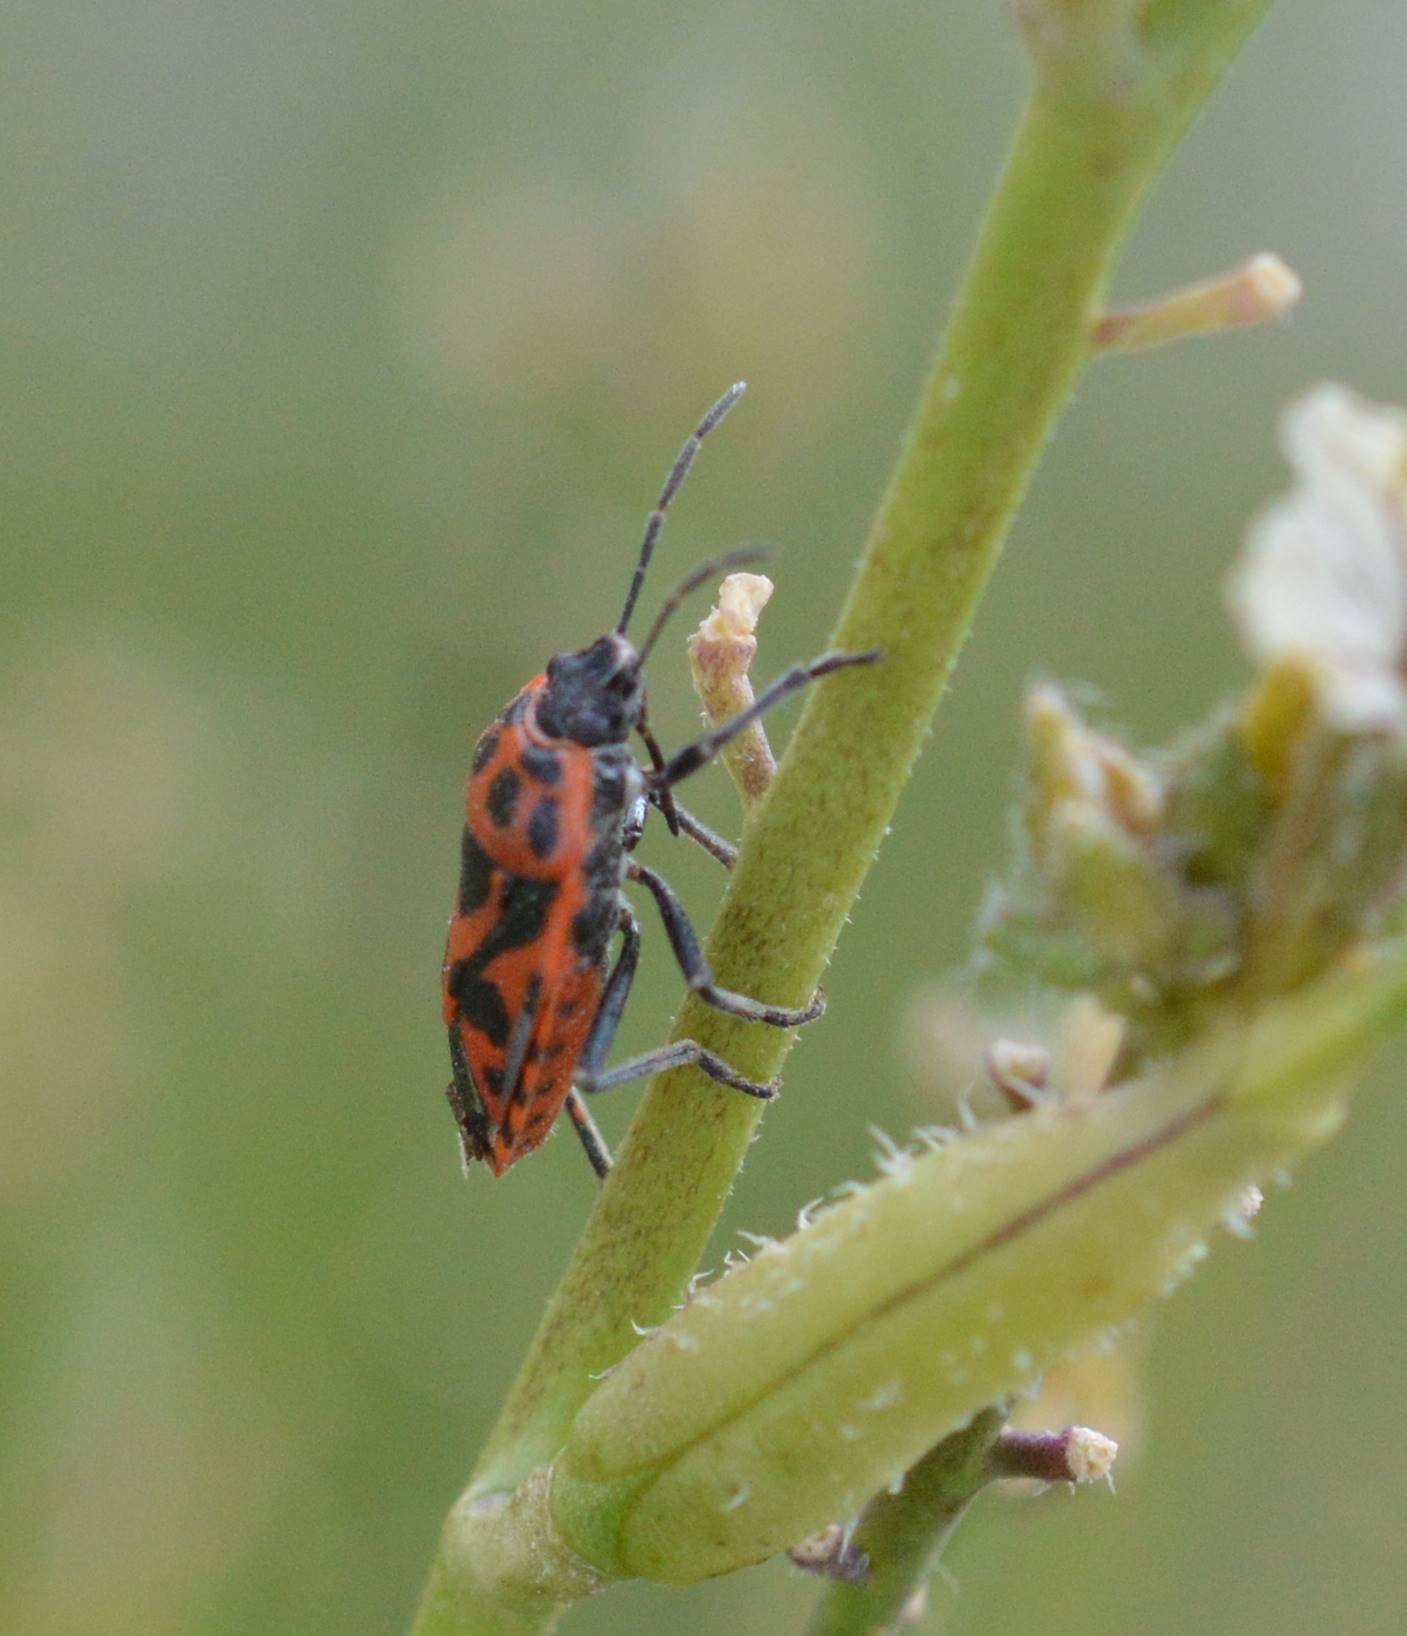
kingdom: Animalia
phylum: Arthropoda
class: Insecta
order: Hemiptera
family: Pentatomidae
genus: Eurydema
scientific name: Eurydema ornata
